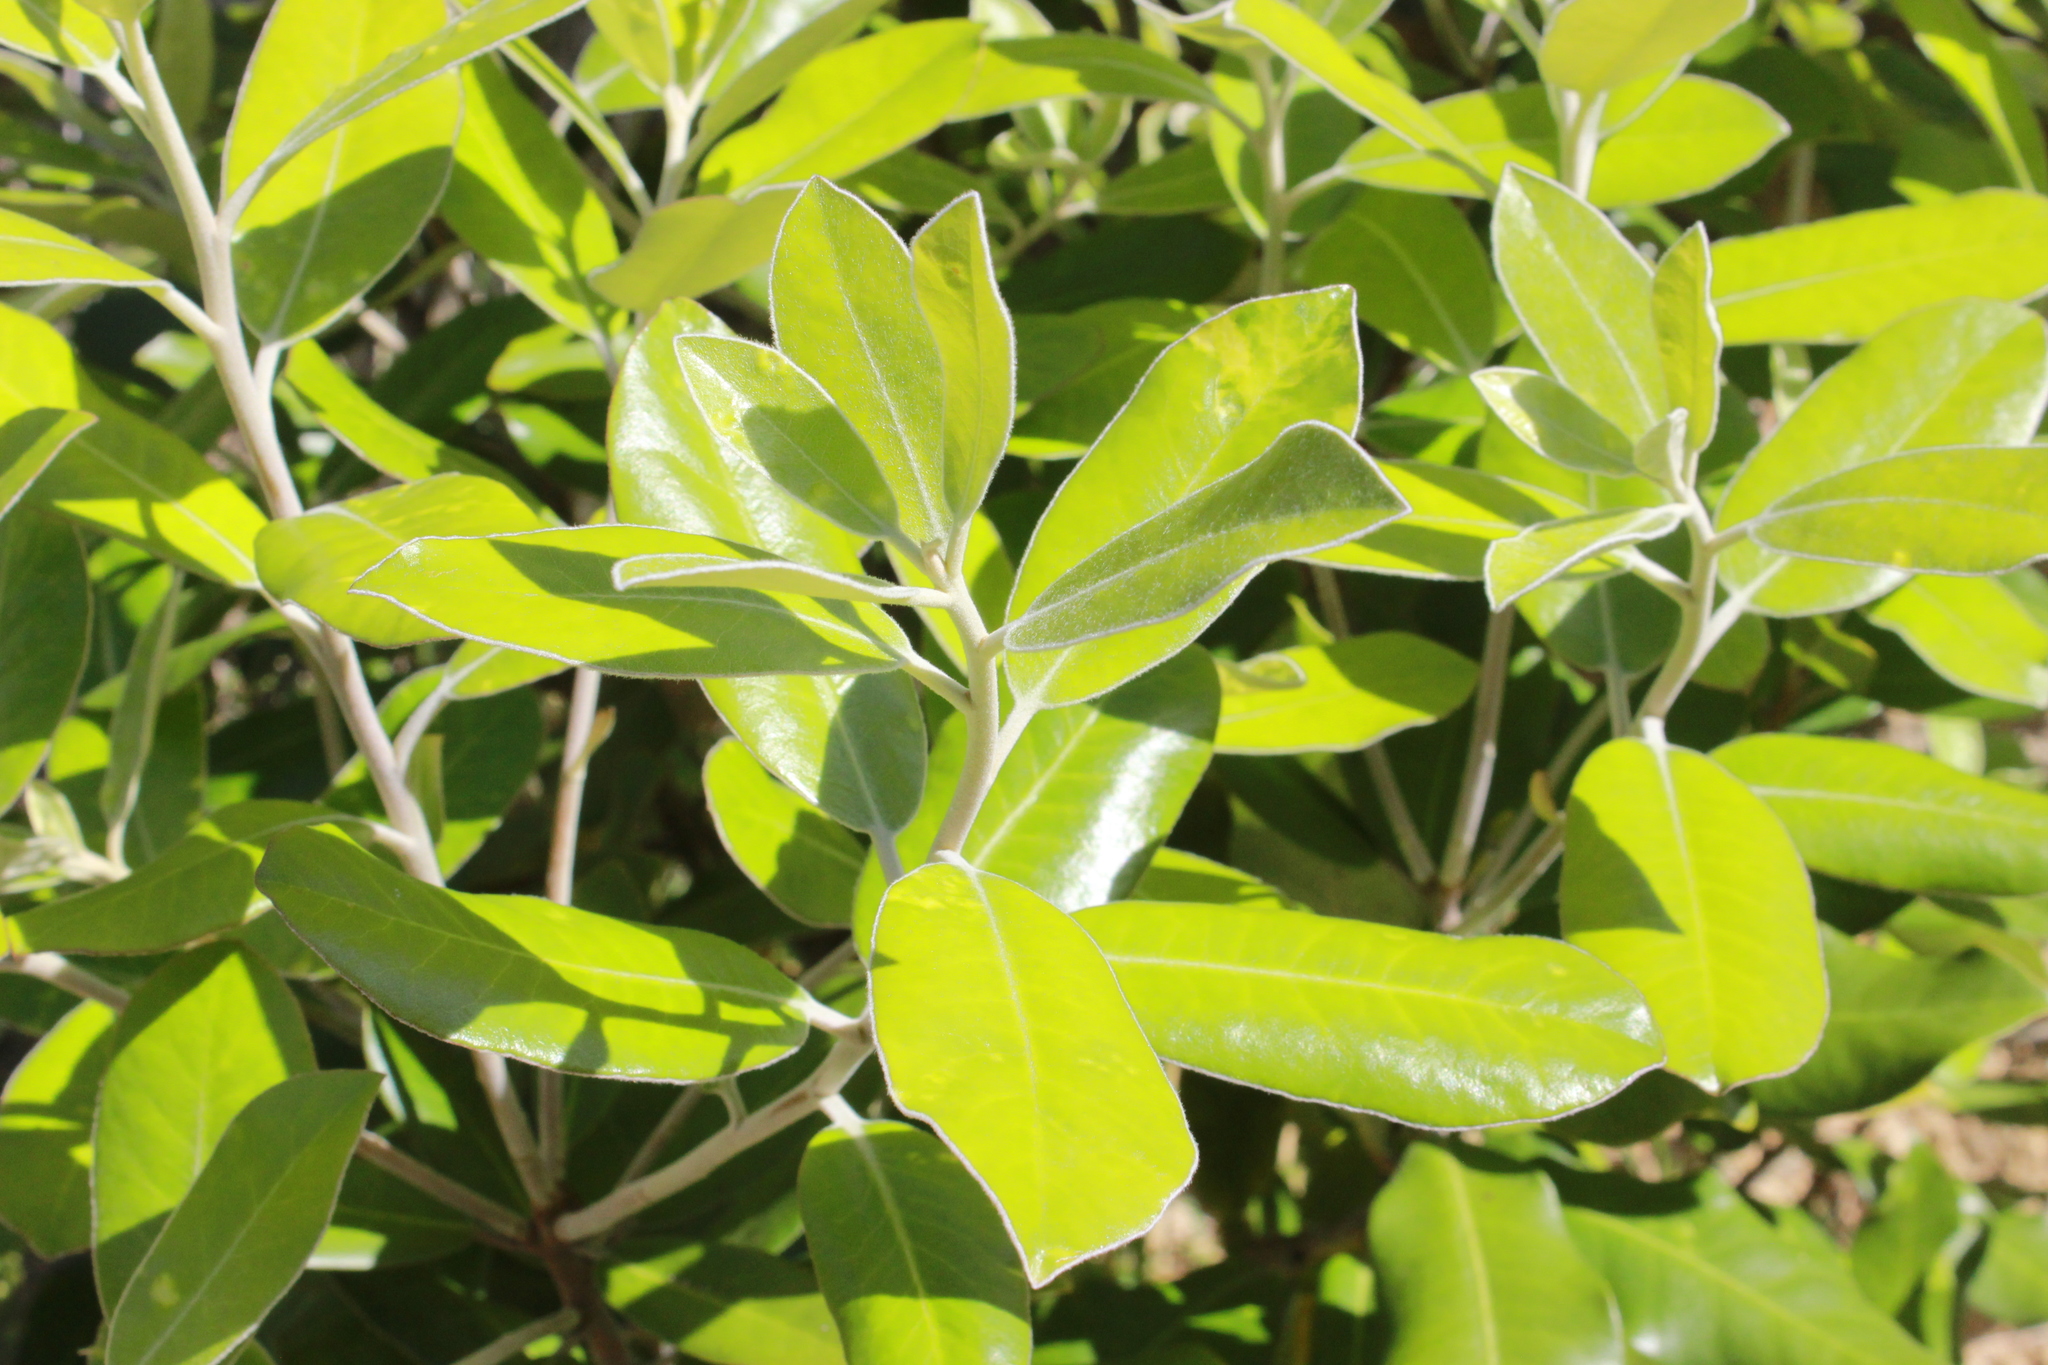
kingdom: Plantae
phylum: Tracheophyta
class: Magnoliopsida
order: Apiales
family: Pittosporaceae
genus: Pittosporum
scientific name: Pittosporum ralphii
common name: Ralph's desertwillow
